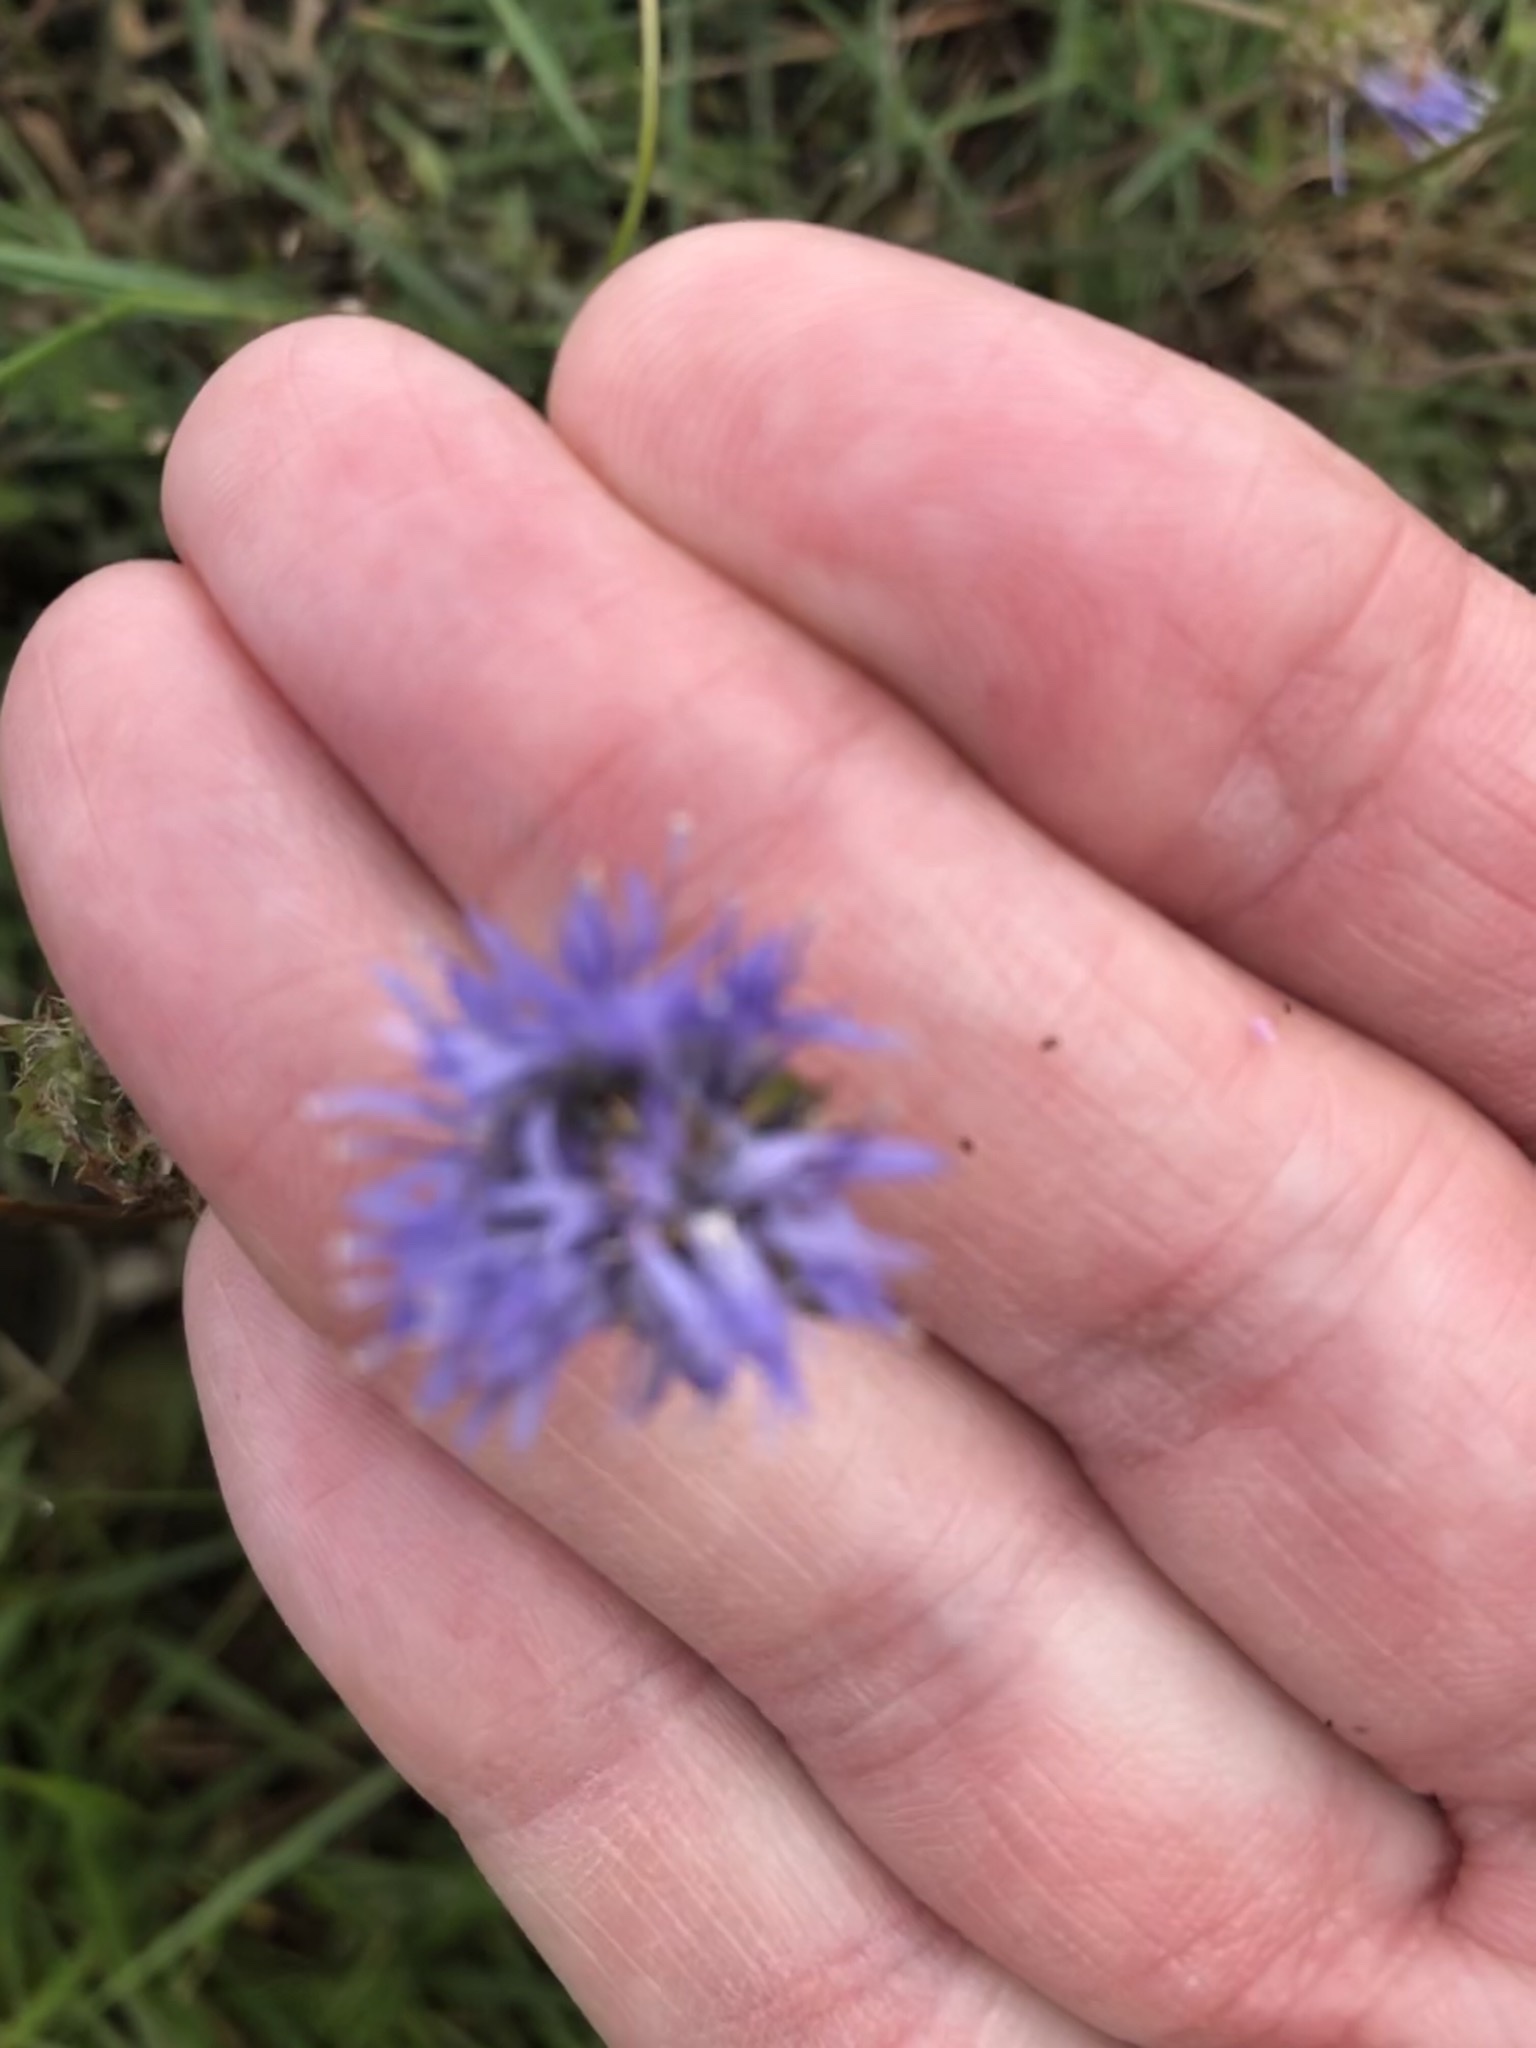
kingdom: Plantae
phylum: Tracheophyta
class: Magnoliopsida
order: Asterales
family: Campanulaceae
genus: Jasione
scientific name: Jasione montana
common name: Sheep's-bit
